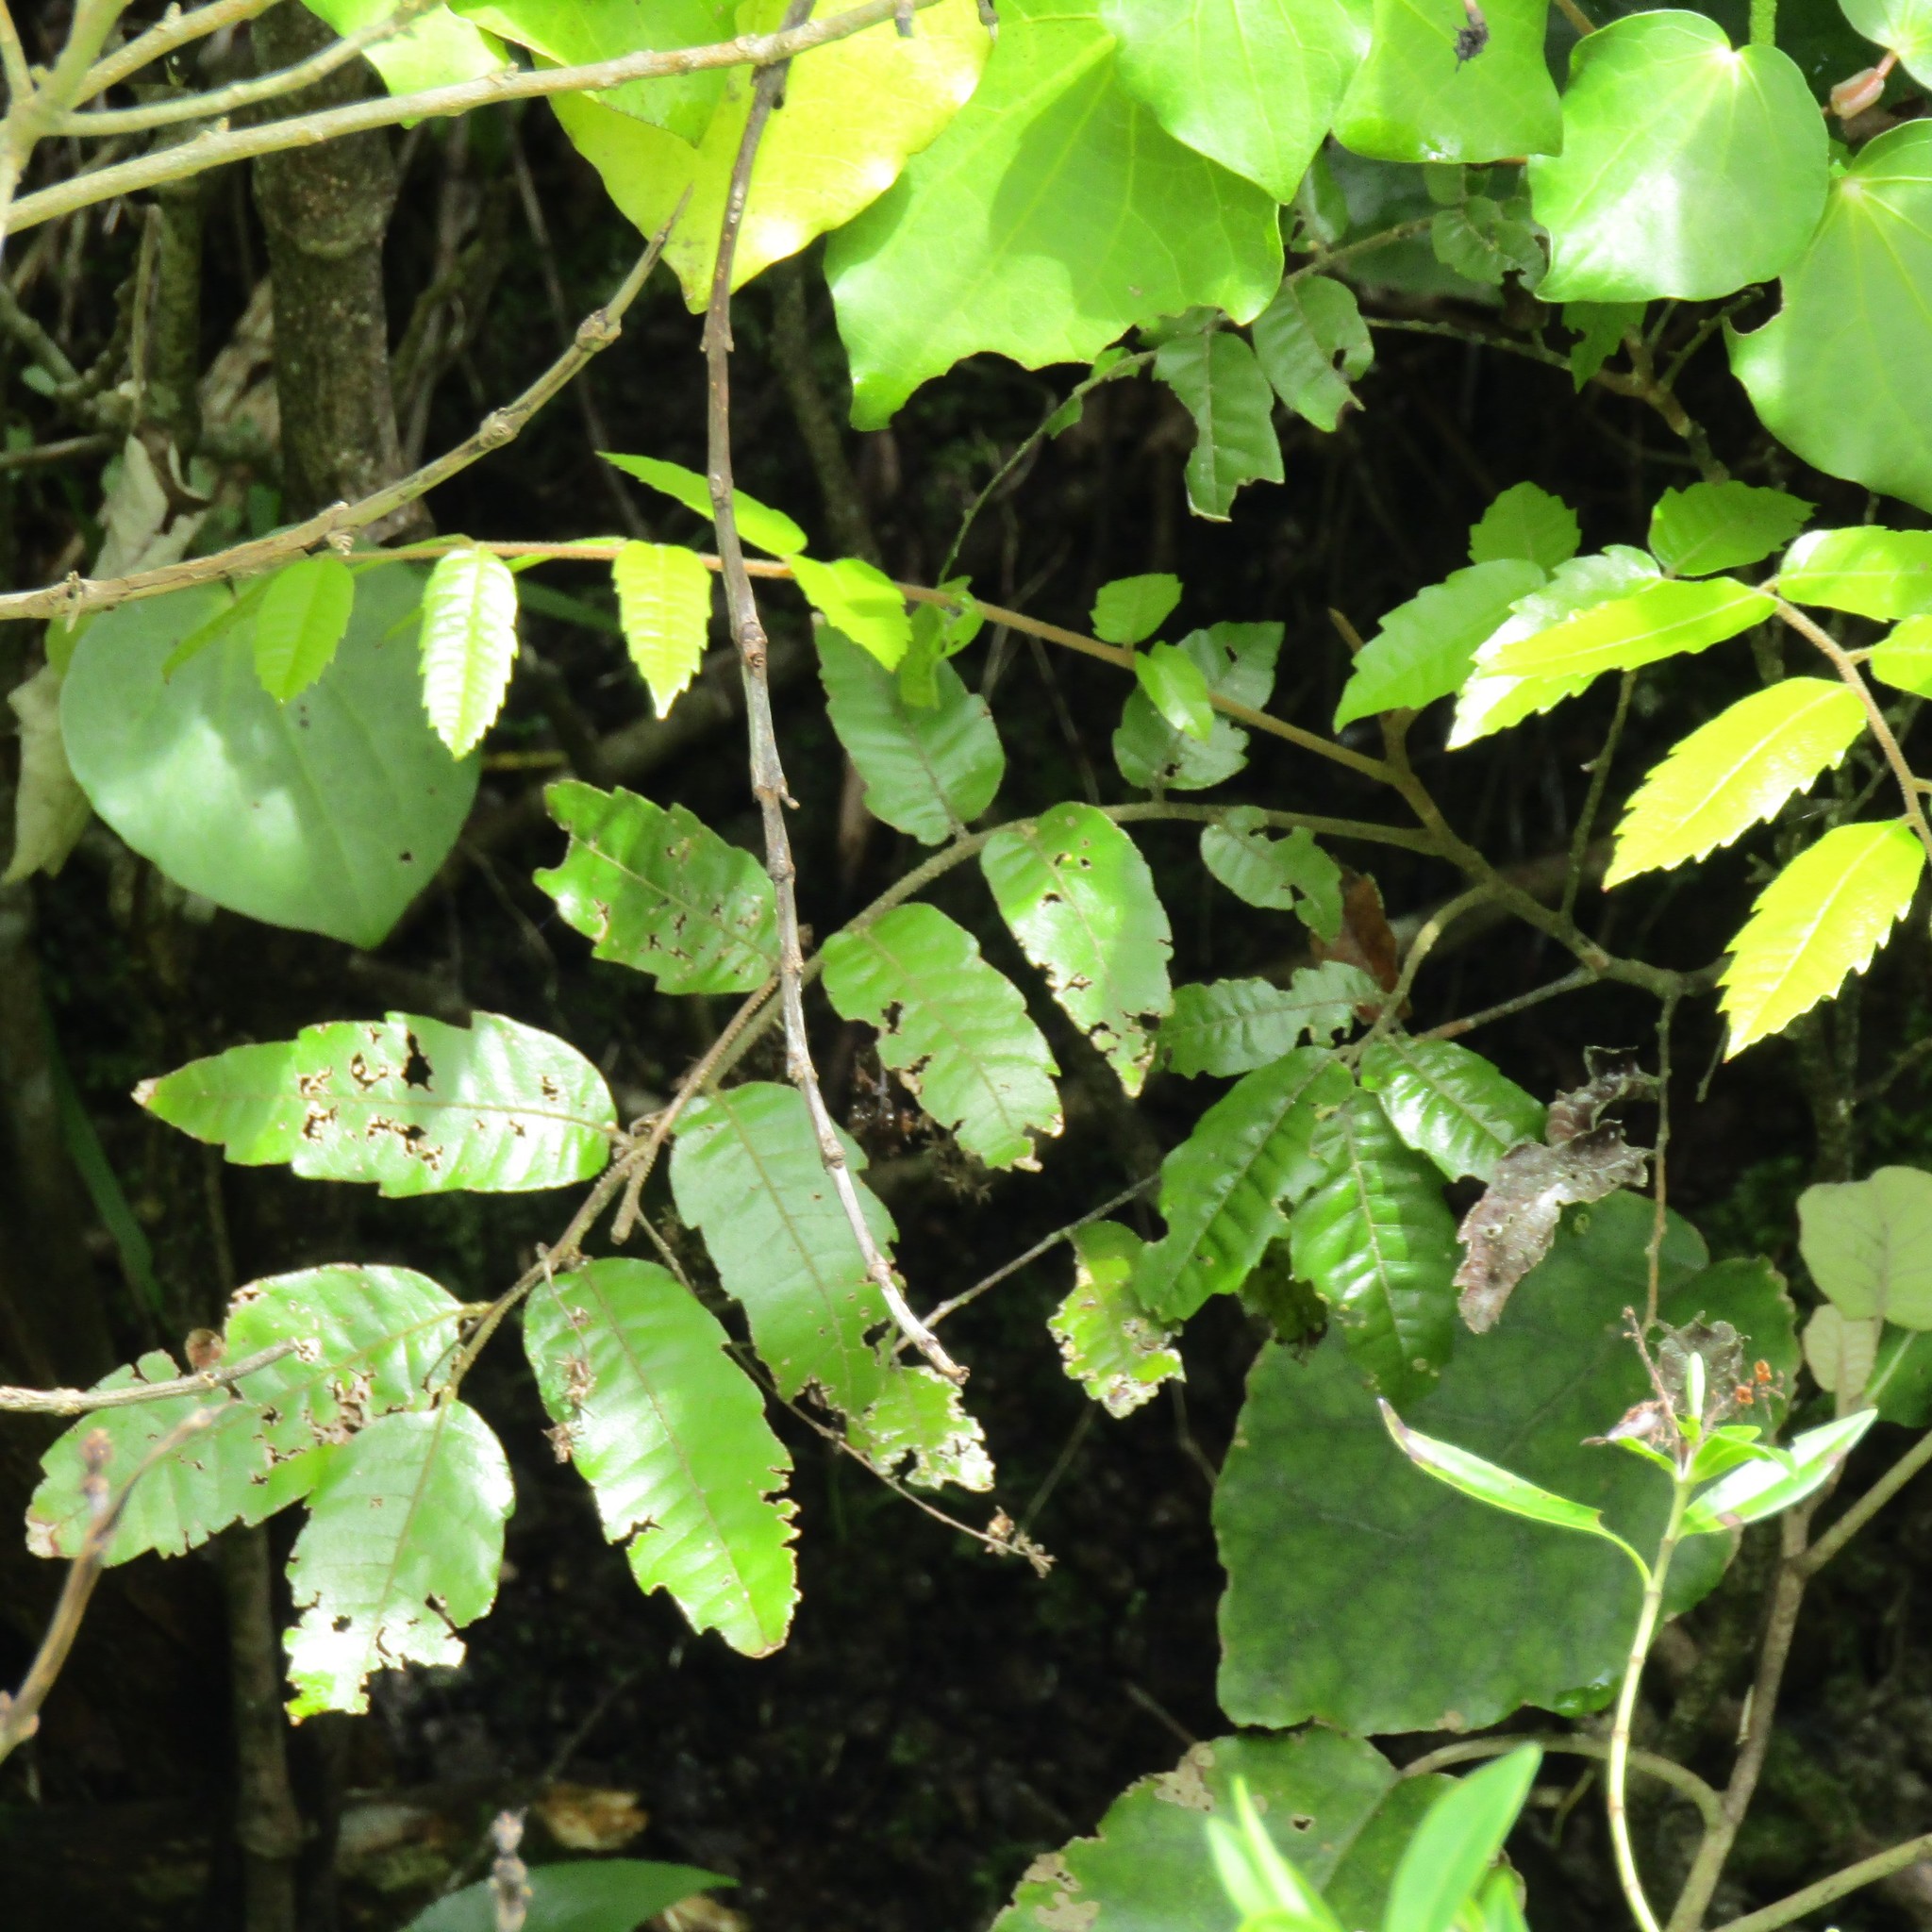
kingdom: Plantae
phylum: Tracheophyta
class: Magnoliopsida
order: Sapindales
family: Sapindaceae
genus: Alectryon
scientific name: Alectryon excelsus
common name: Three kings titoki
